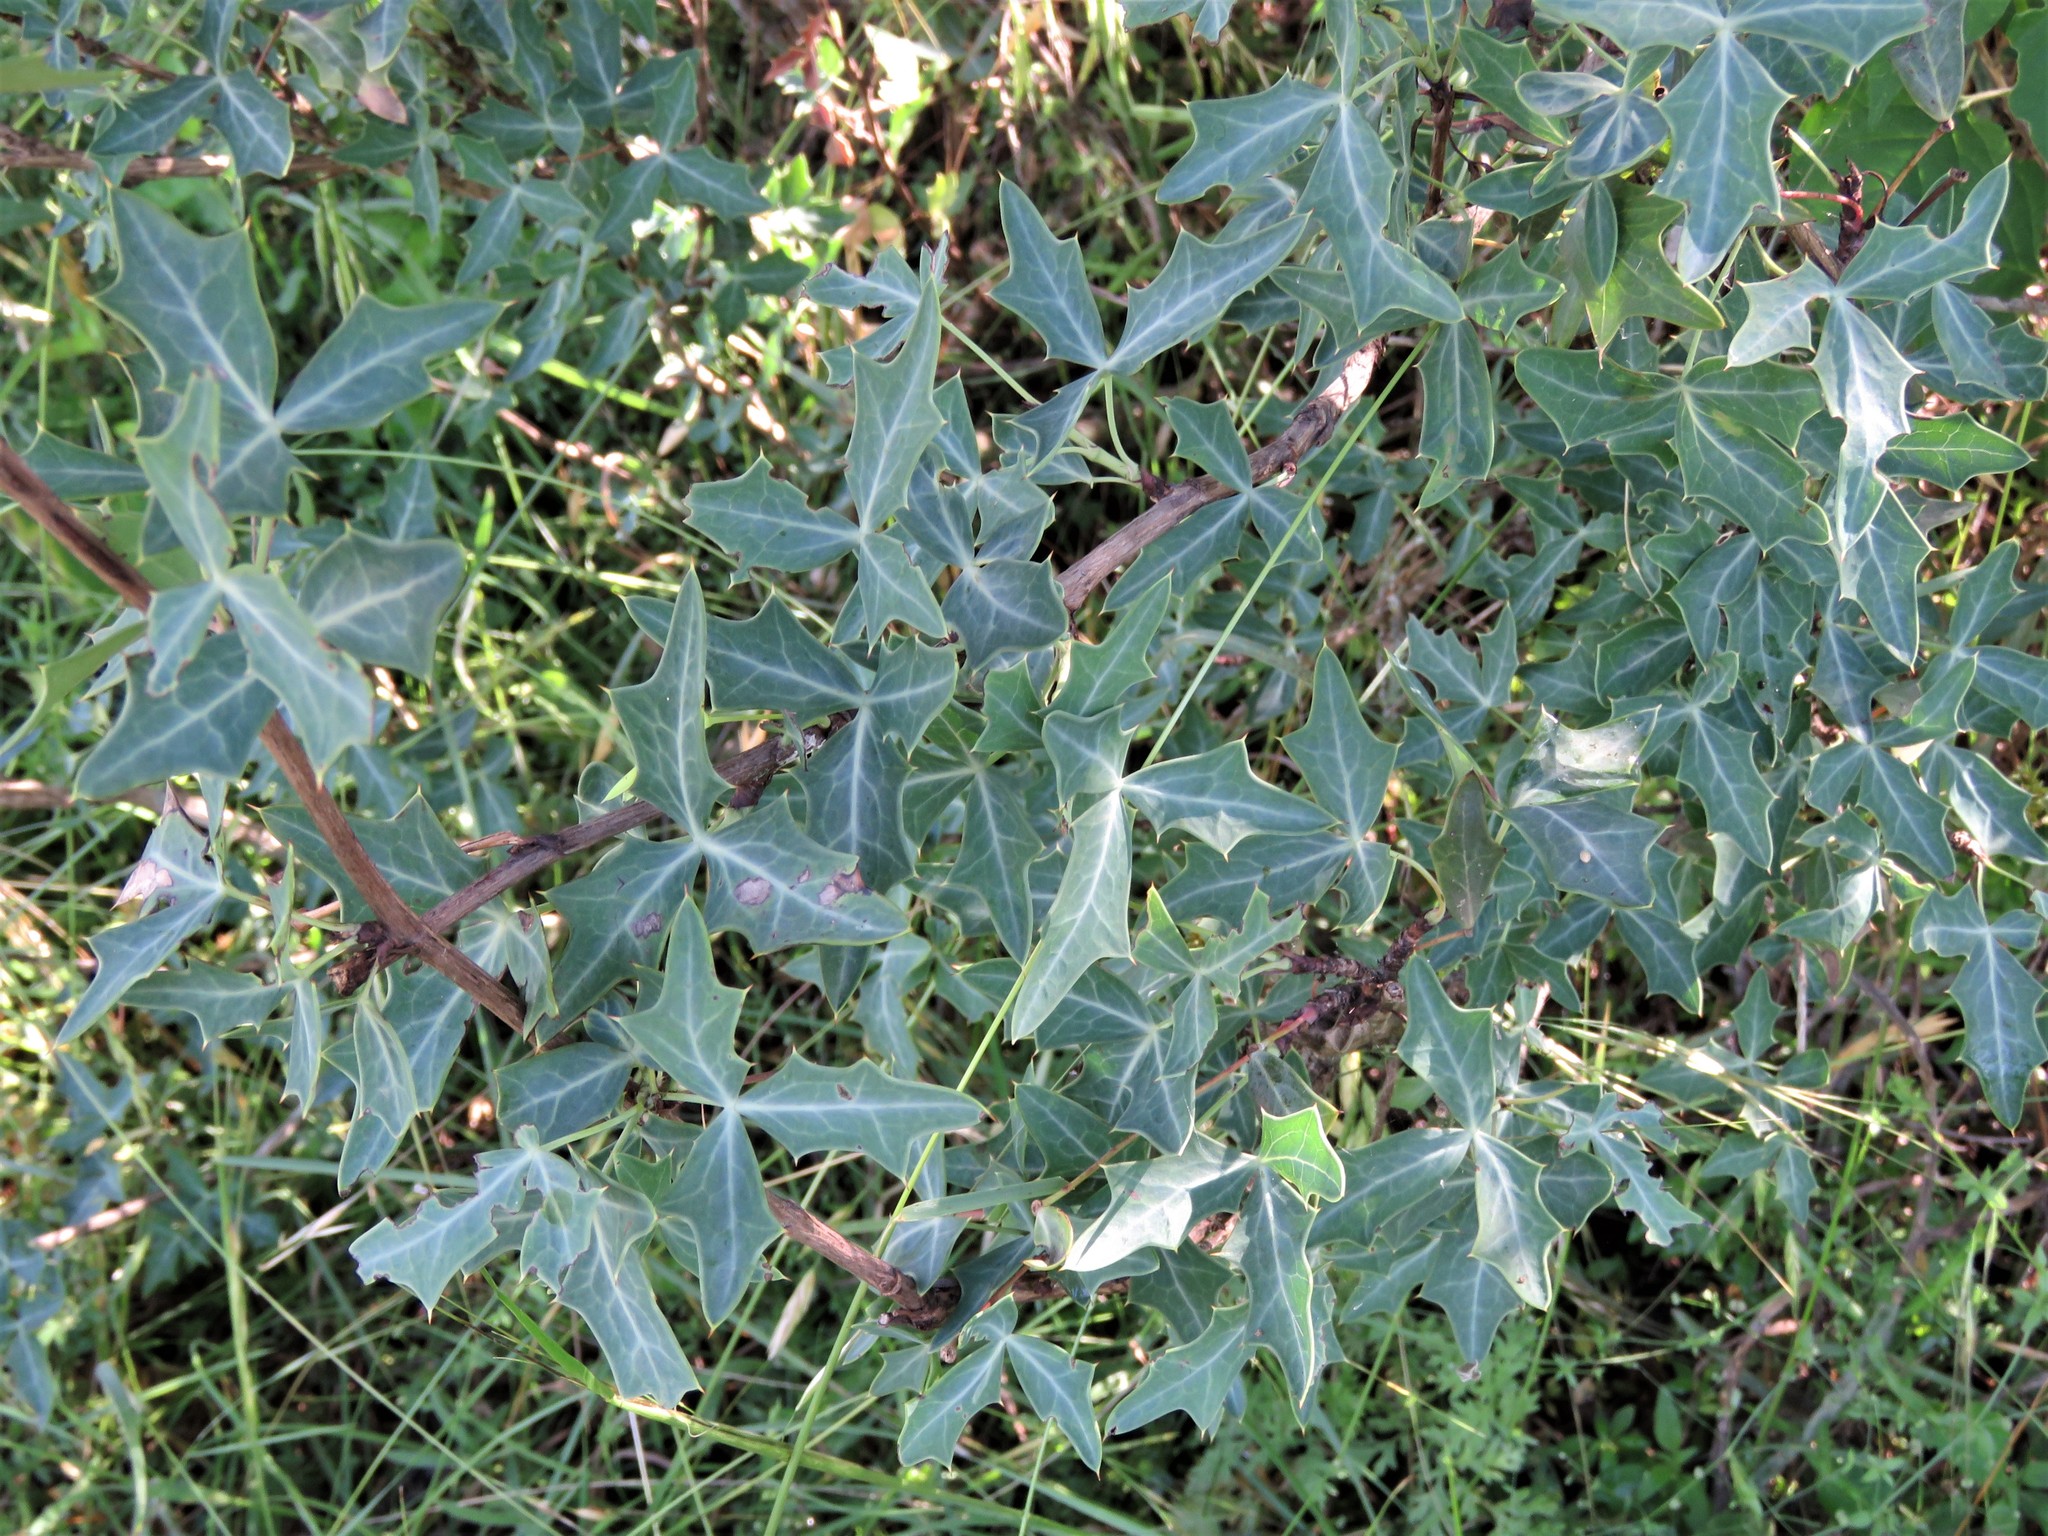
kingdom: Plantae
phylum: Tracheophyta
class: Magnoliopsida
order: Ranunculales
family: Berberidaceae
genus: Alloberberis
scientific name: Alloberberis trifoliolata
